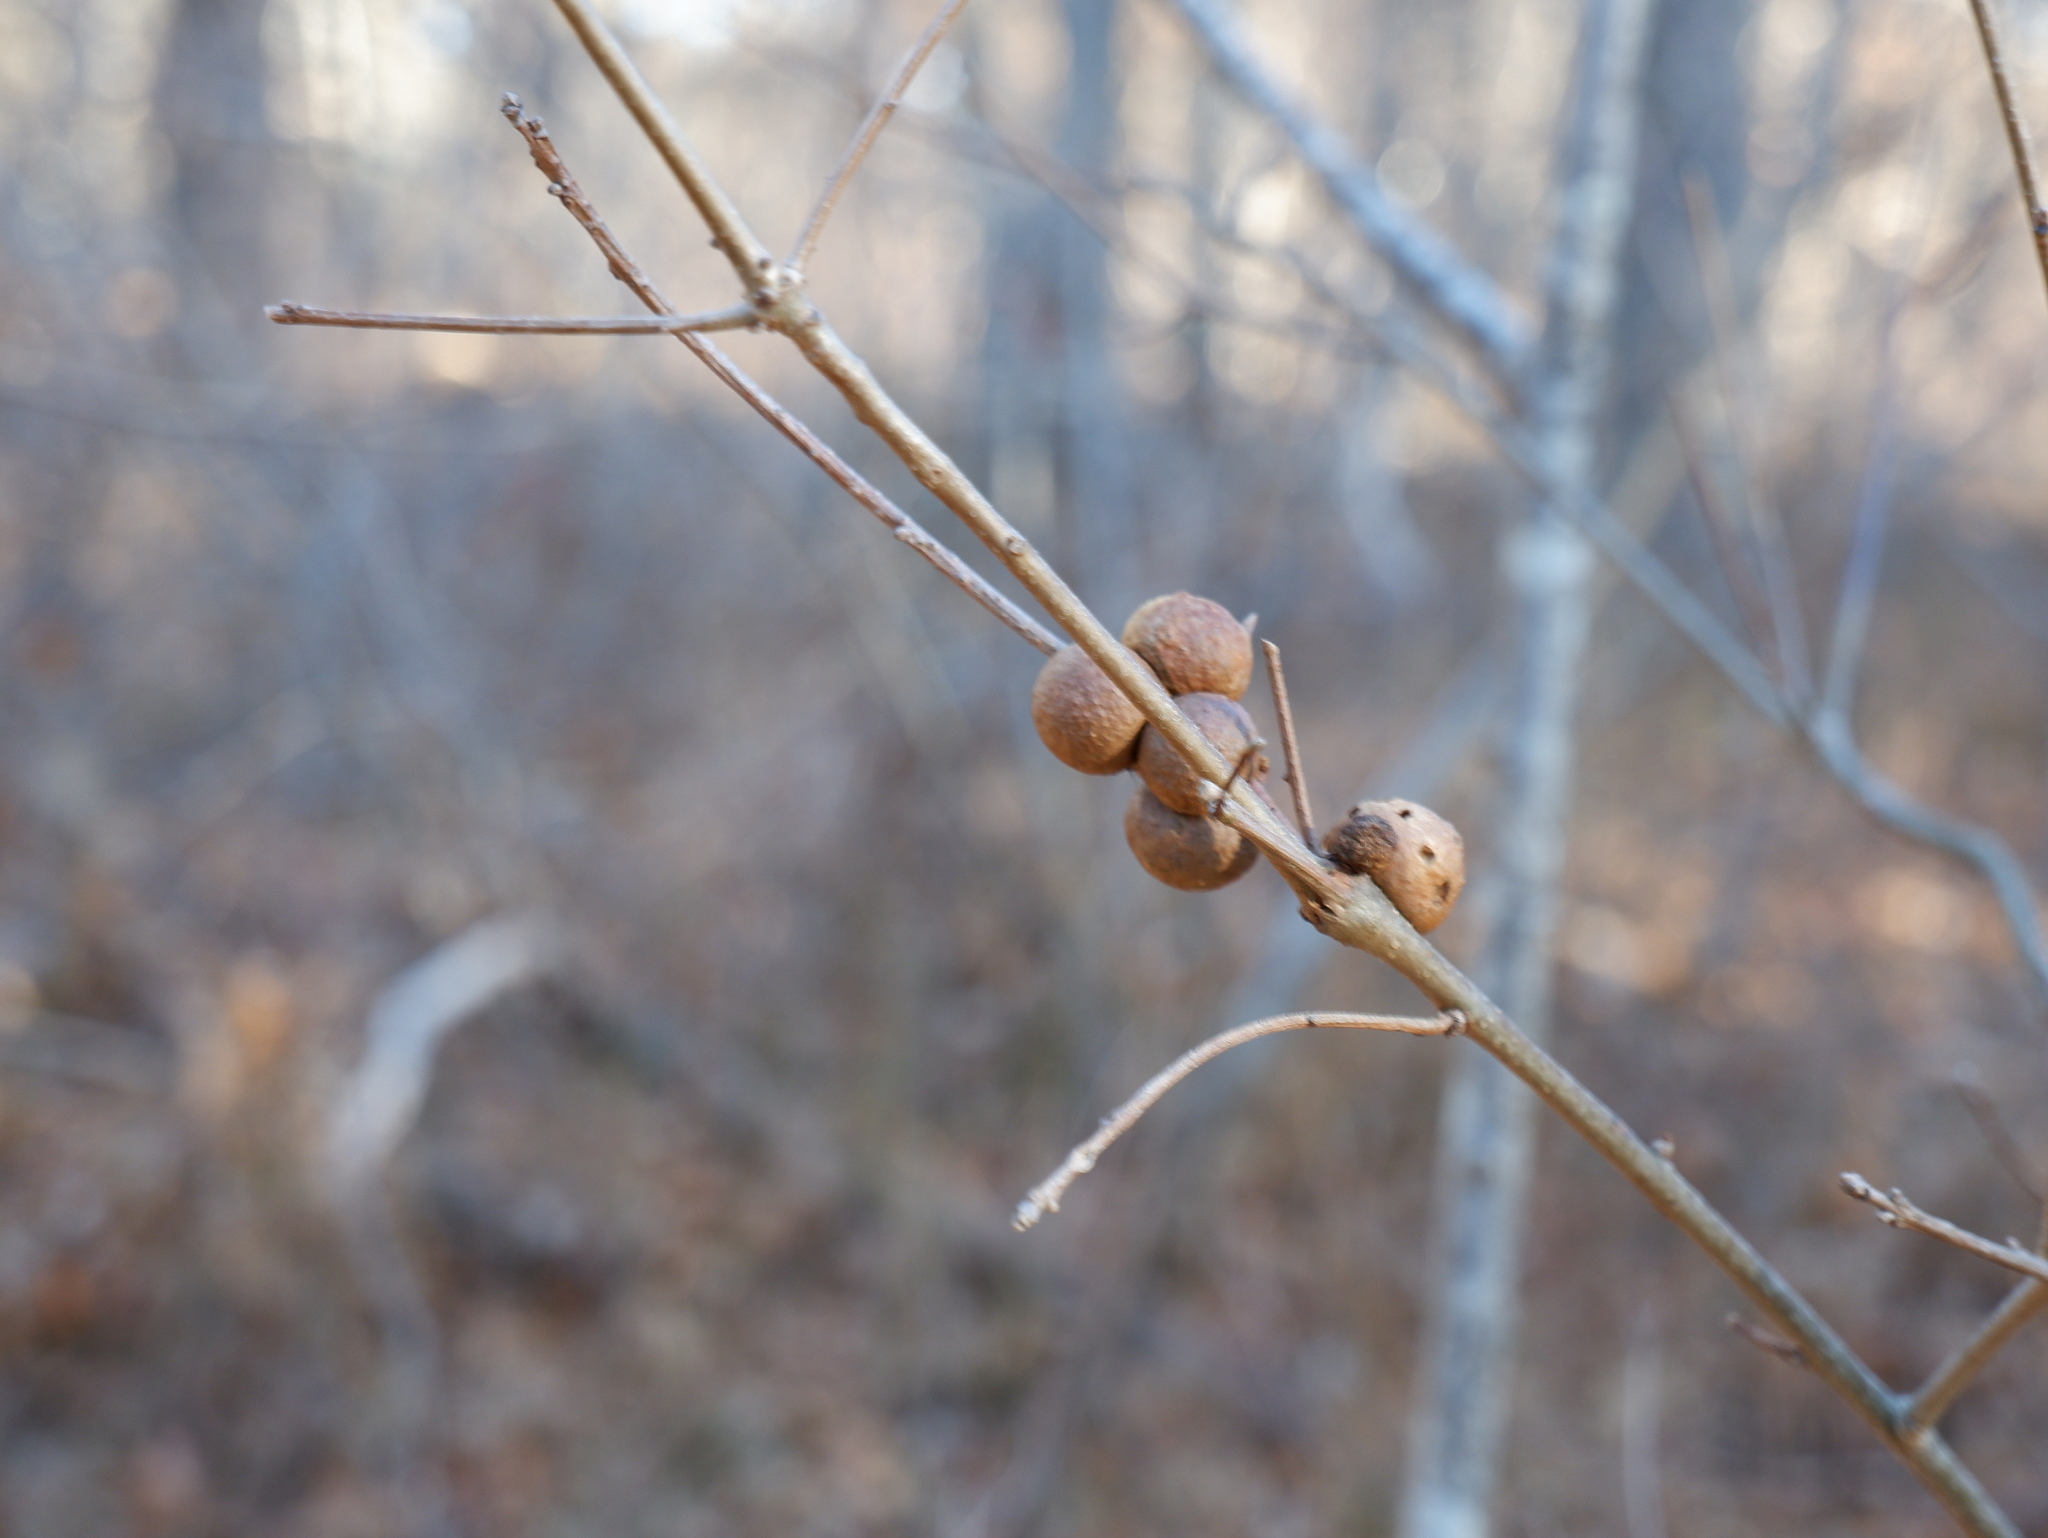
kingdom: Animalia
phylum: Arthropoda
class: Insecta
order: Hymenoptera
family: Cynipidae
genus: Disholcaspis
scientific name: Disholcaspis quercusglobulus
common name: Round bullet gall wasp
